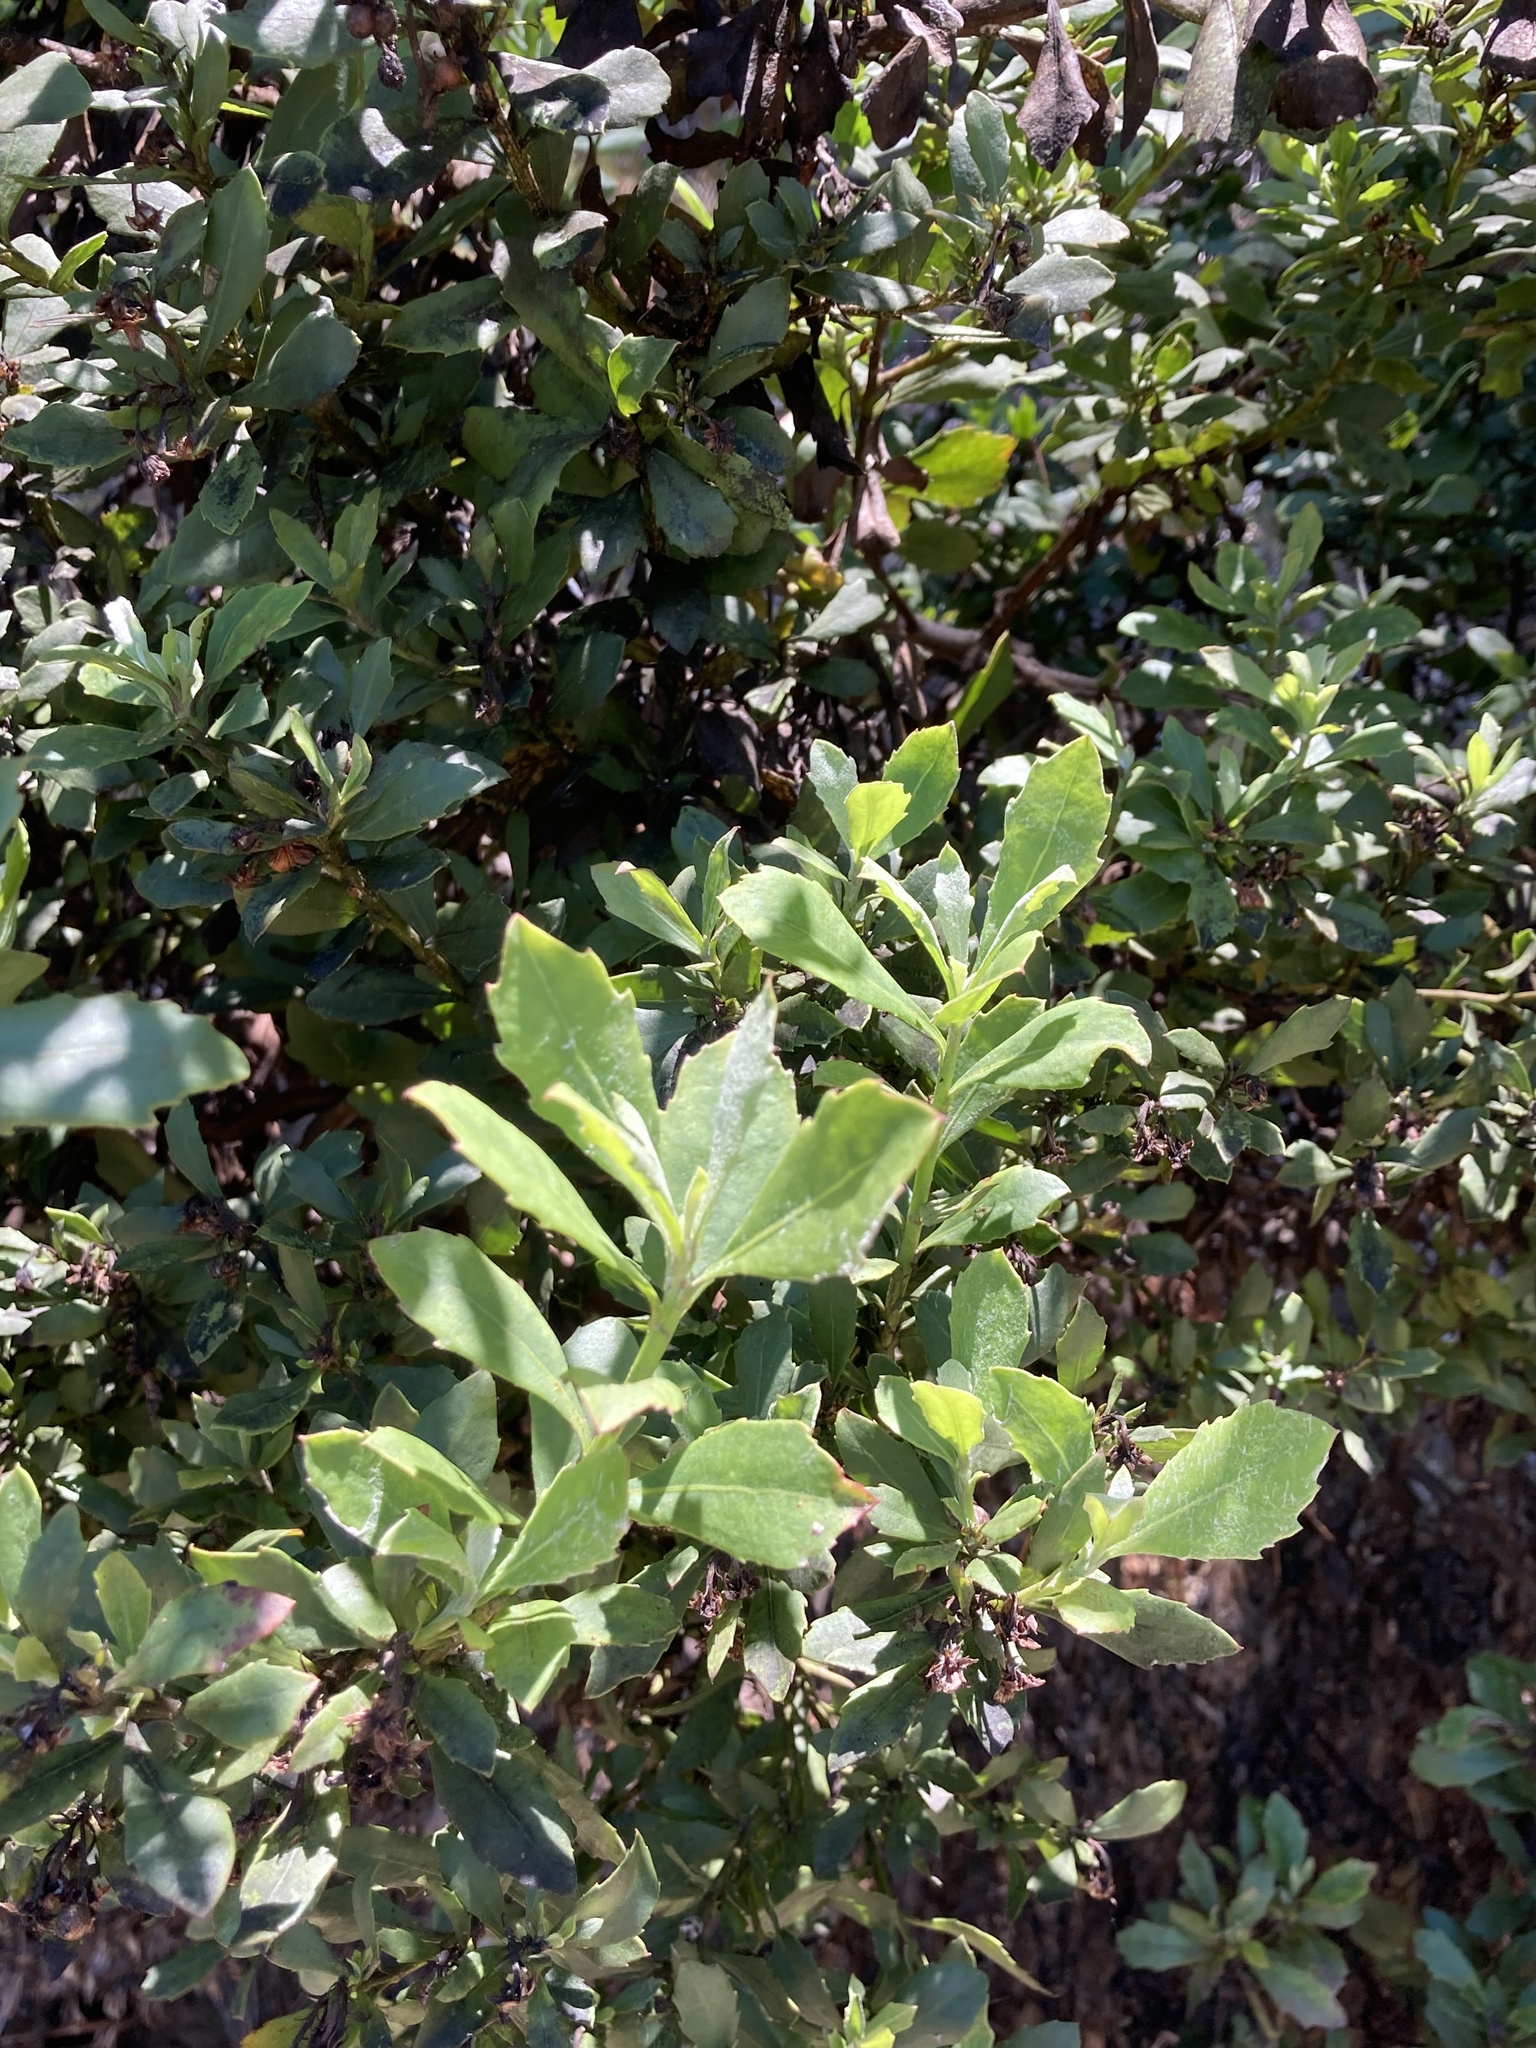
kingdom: Plantae
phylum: Tracheophyta
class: Magnoliopsida
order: Asterales
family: Asteraceae
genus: Osteospermum
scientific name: Osteospermum moniliferum
